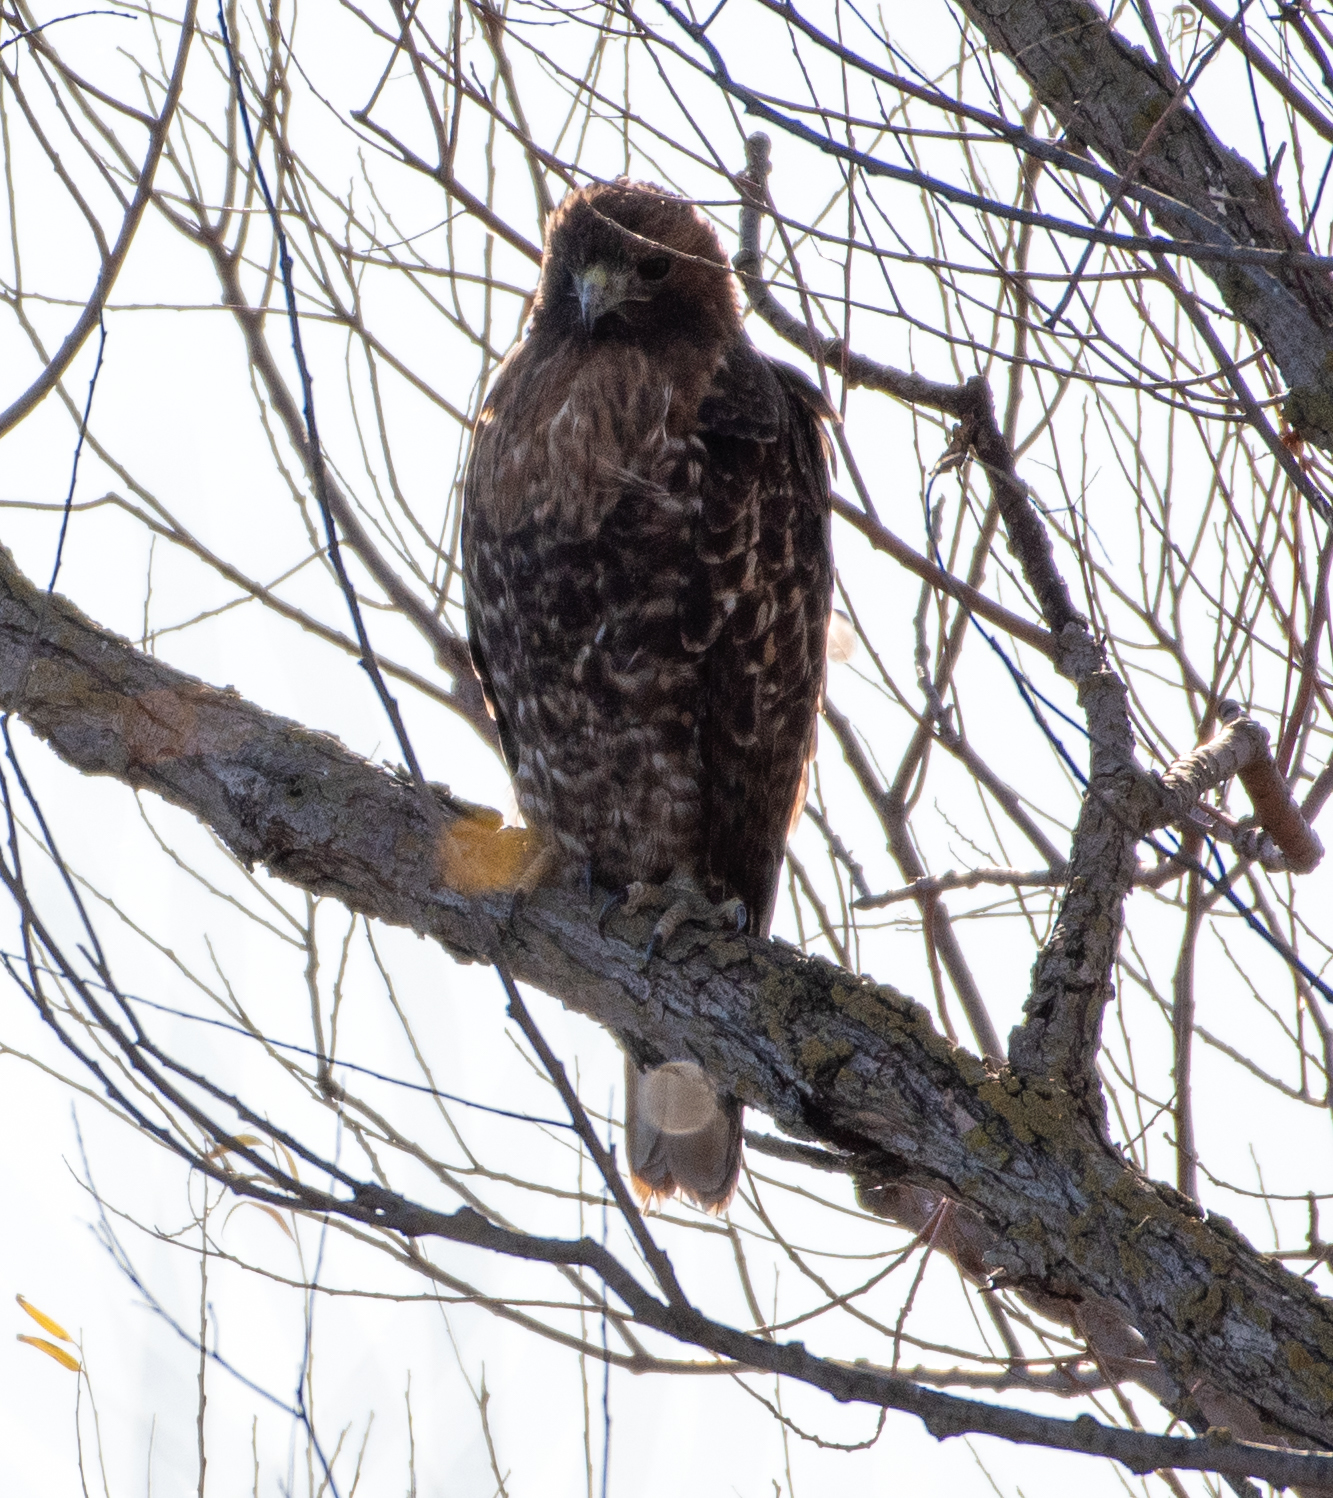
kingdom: Animalia
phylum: Chordata
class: Aves
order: Accipitriformes
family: Accipitridae
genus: Buteo
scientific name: Buteo jamaicensis
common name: Red-tailed hawk
